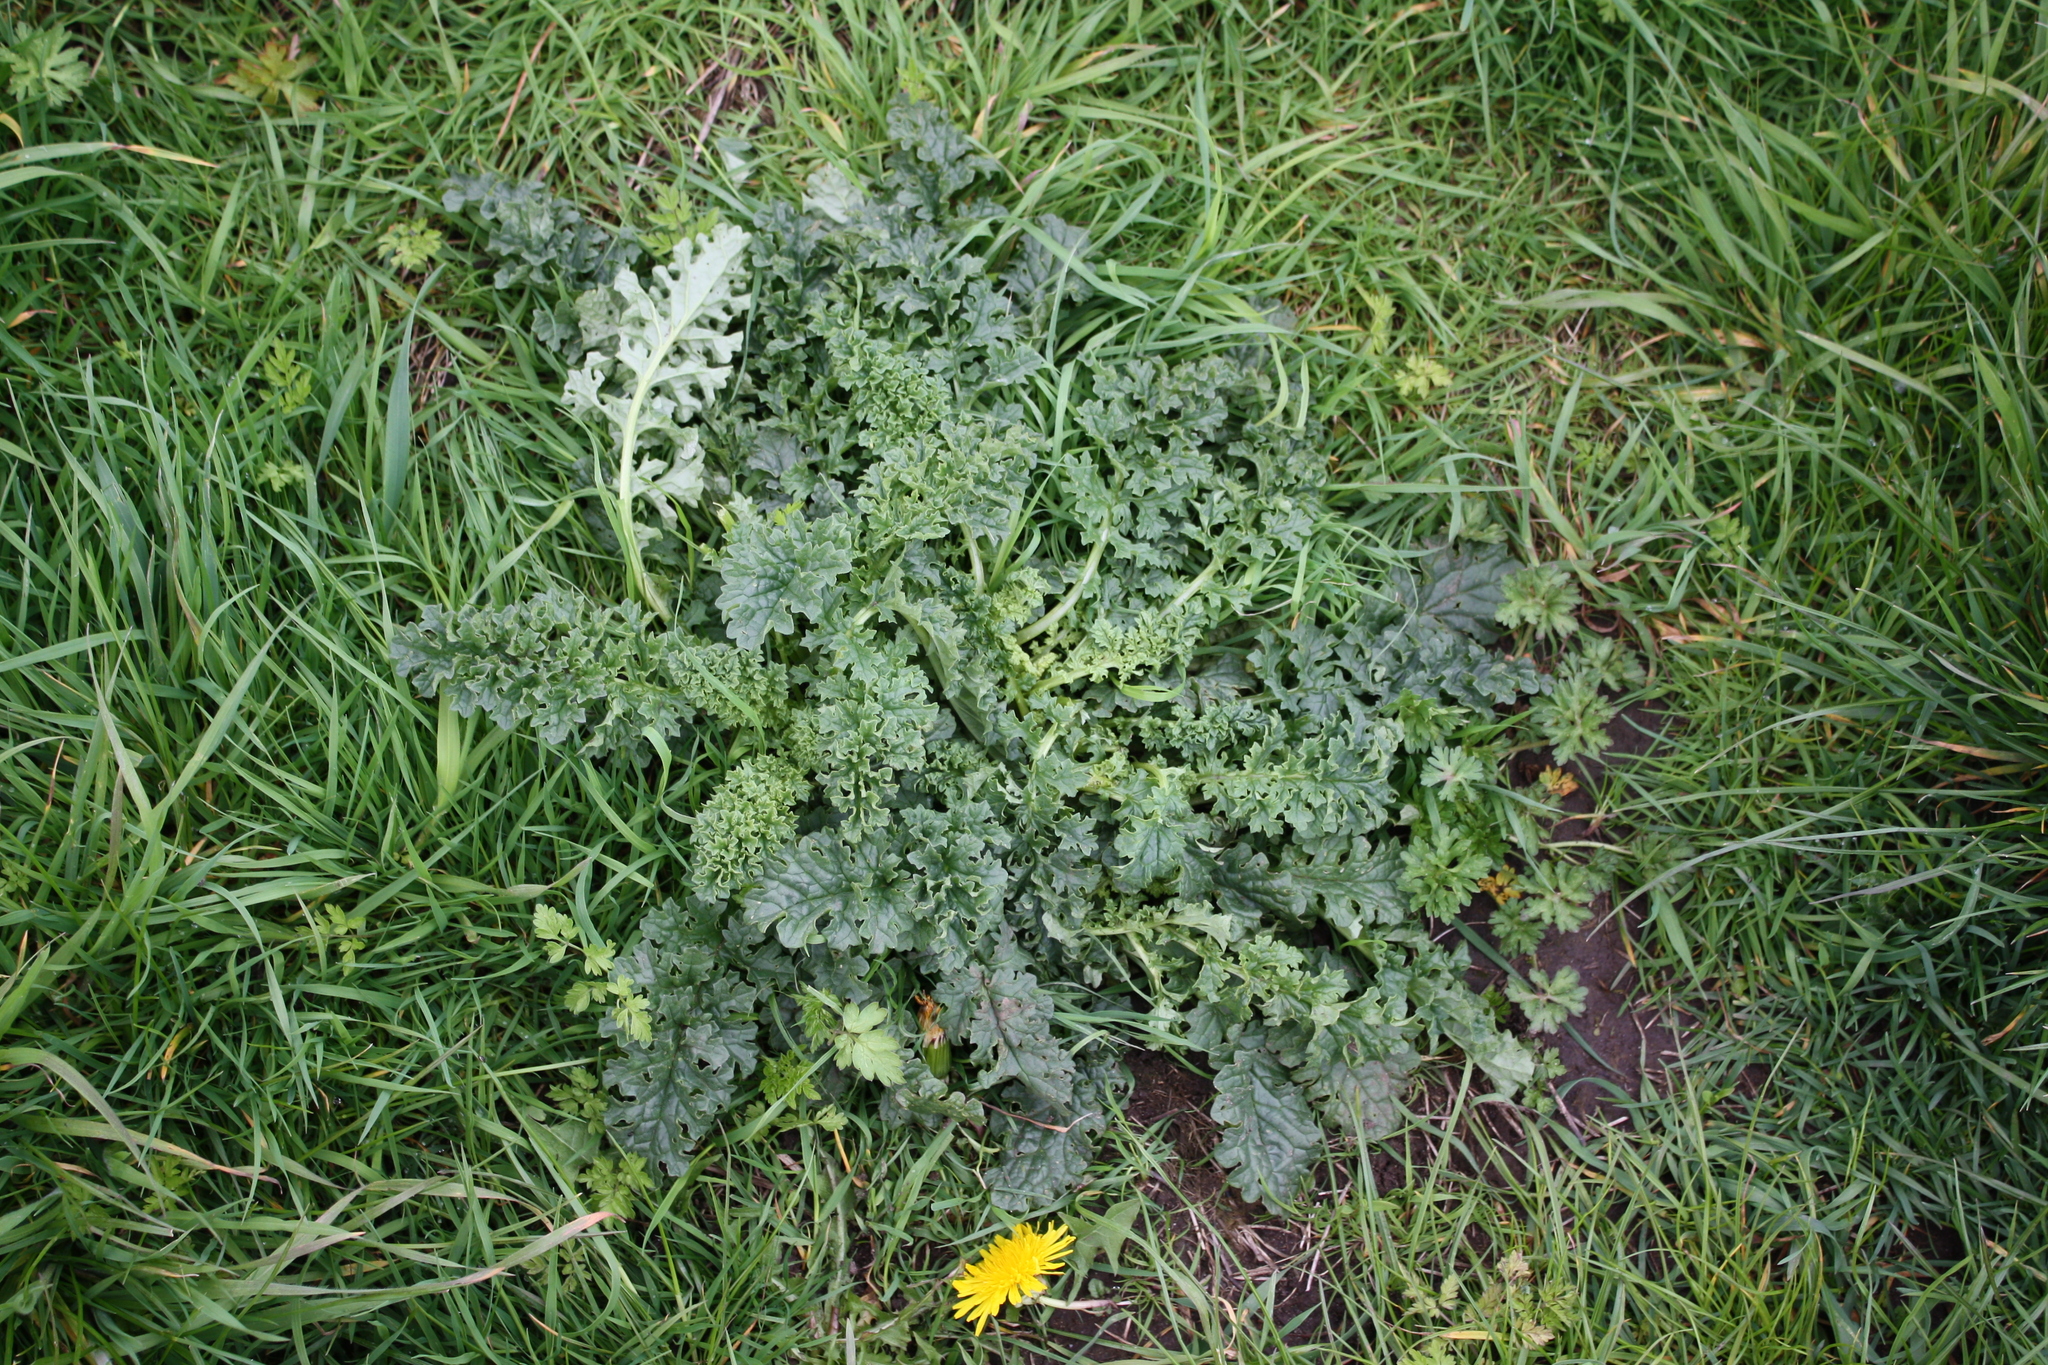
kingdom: Plantae
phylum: Tracheophyta
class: Magnoliopsida
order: Asterales
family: Asteraceae
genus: Jacobaea
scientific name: Jacobaea vulgaris
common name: Stinking willie
